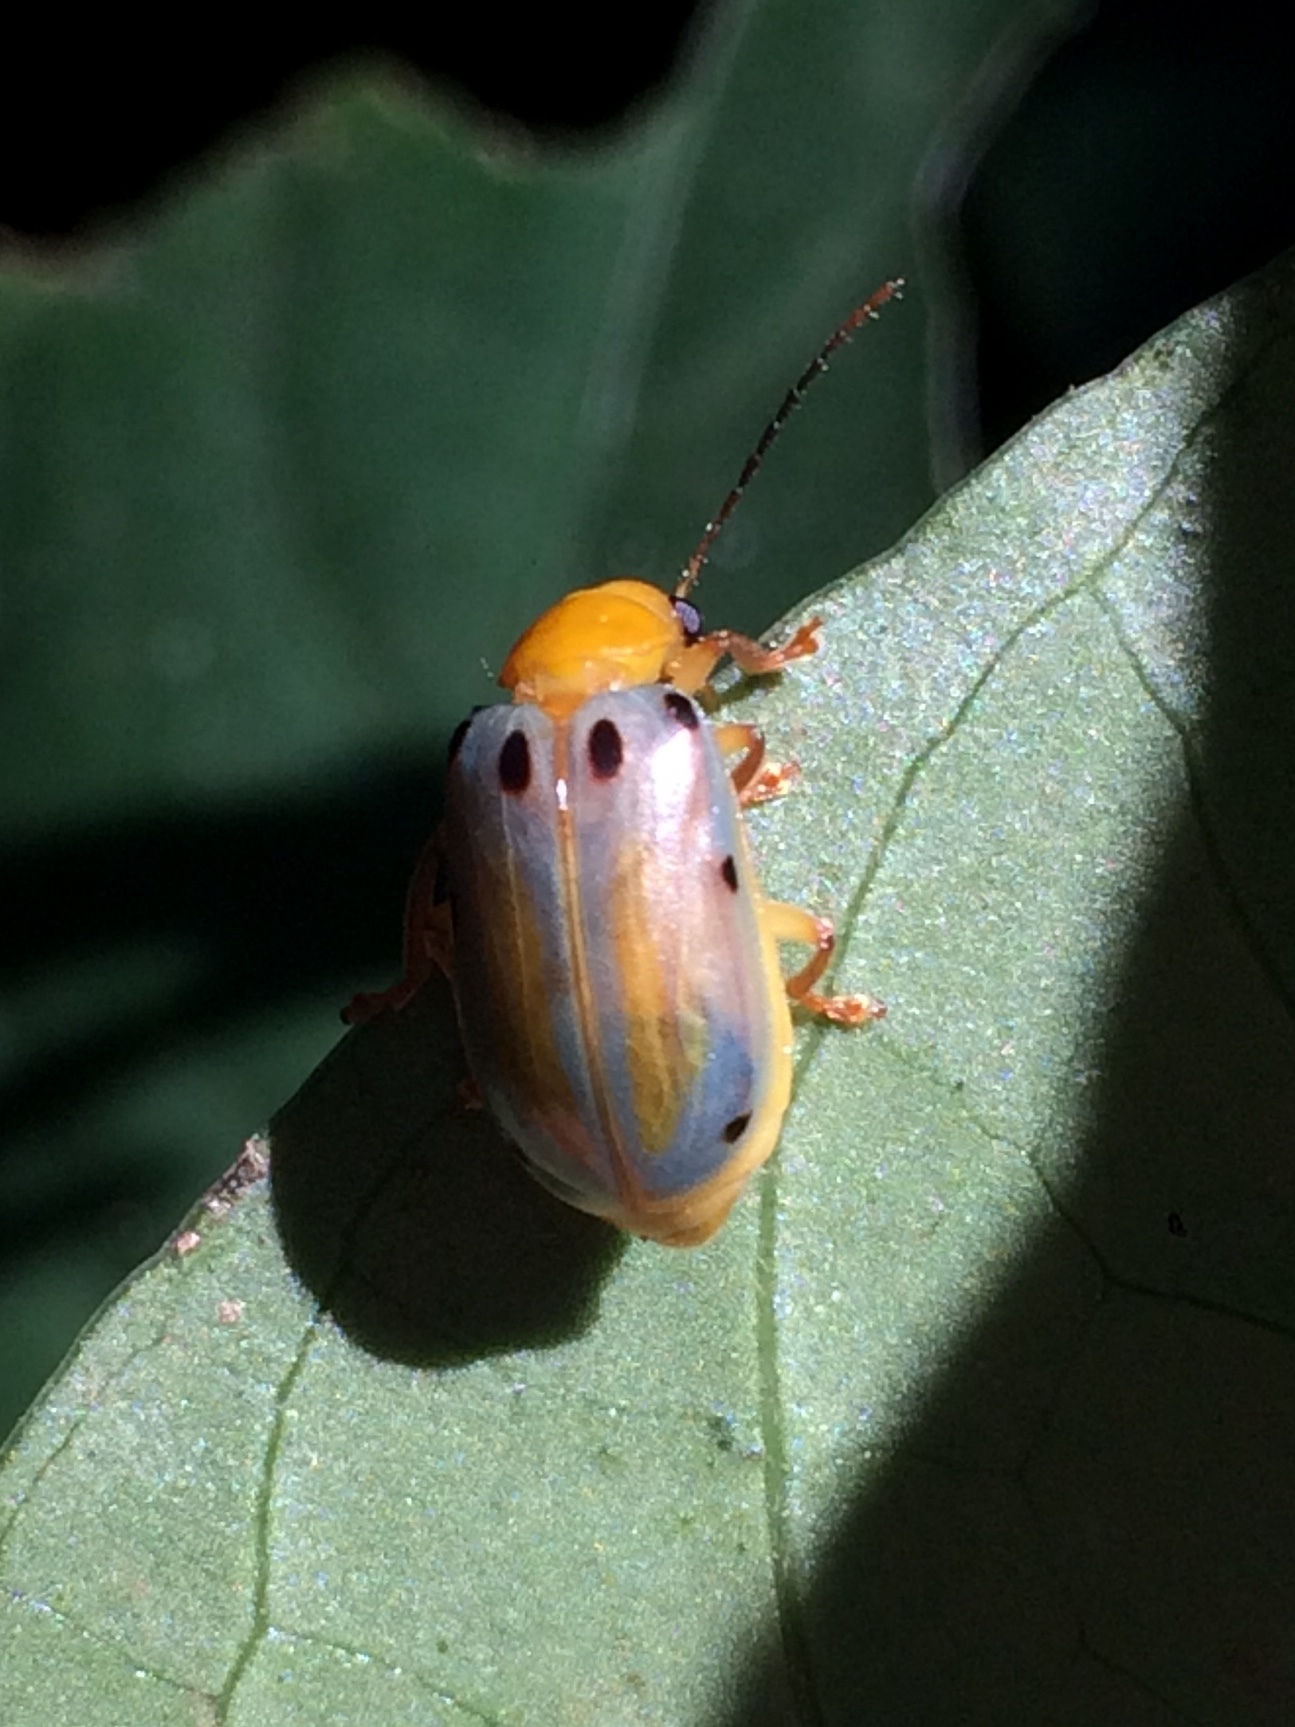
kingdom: Animalia
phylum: Arthropoda
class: Insecta
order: Coleoptera
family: Chrysomelidae
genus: Exora
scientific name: Exora obsoleta
